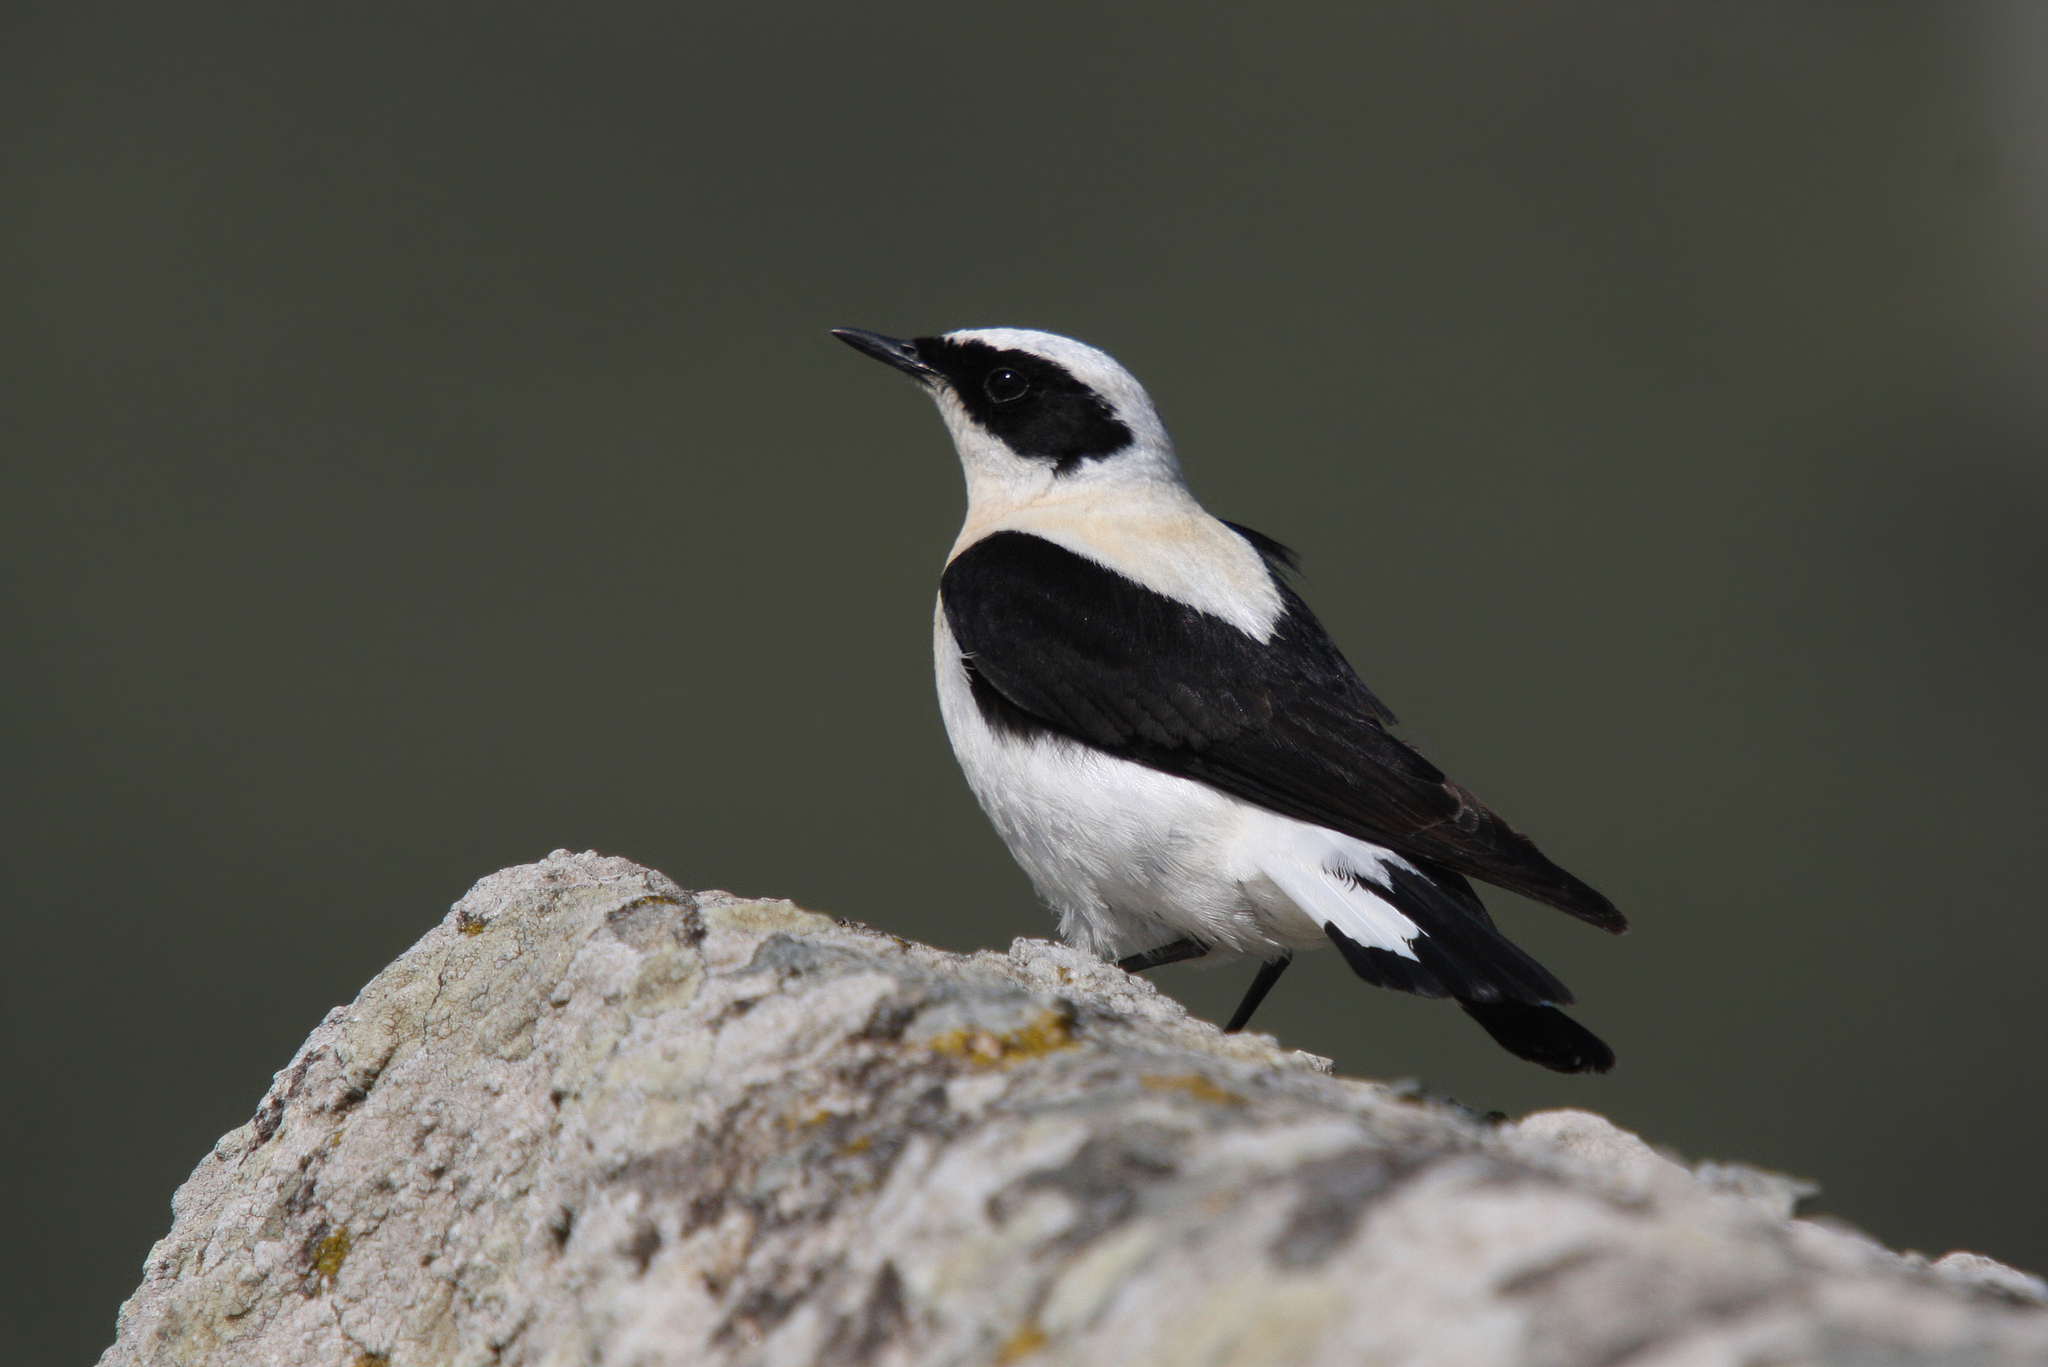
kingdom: Animalia
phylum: Chordata
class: Aves
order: Passeriformes
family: Muscicapidae
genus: Oenanthe
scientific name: Oenanthe hispanica
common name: Black-eared wheatear
